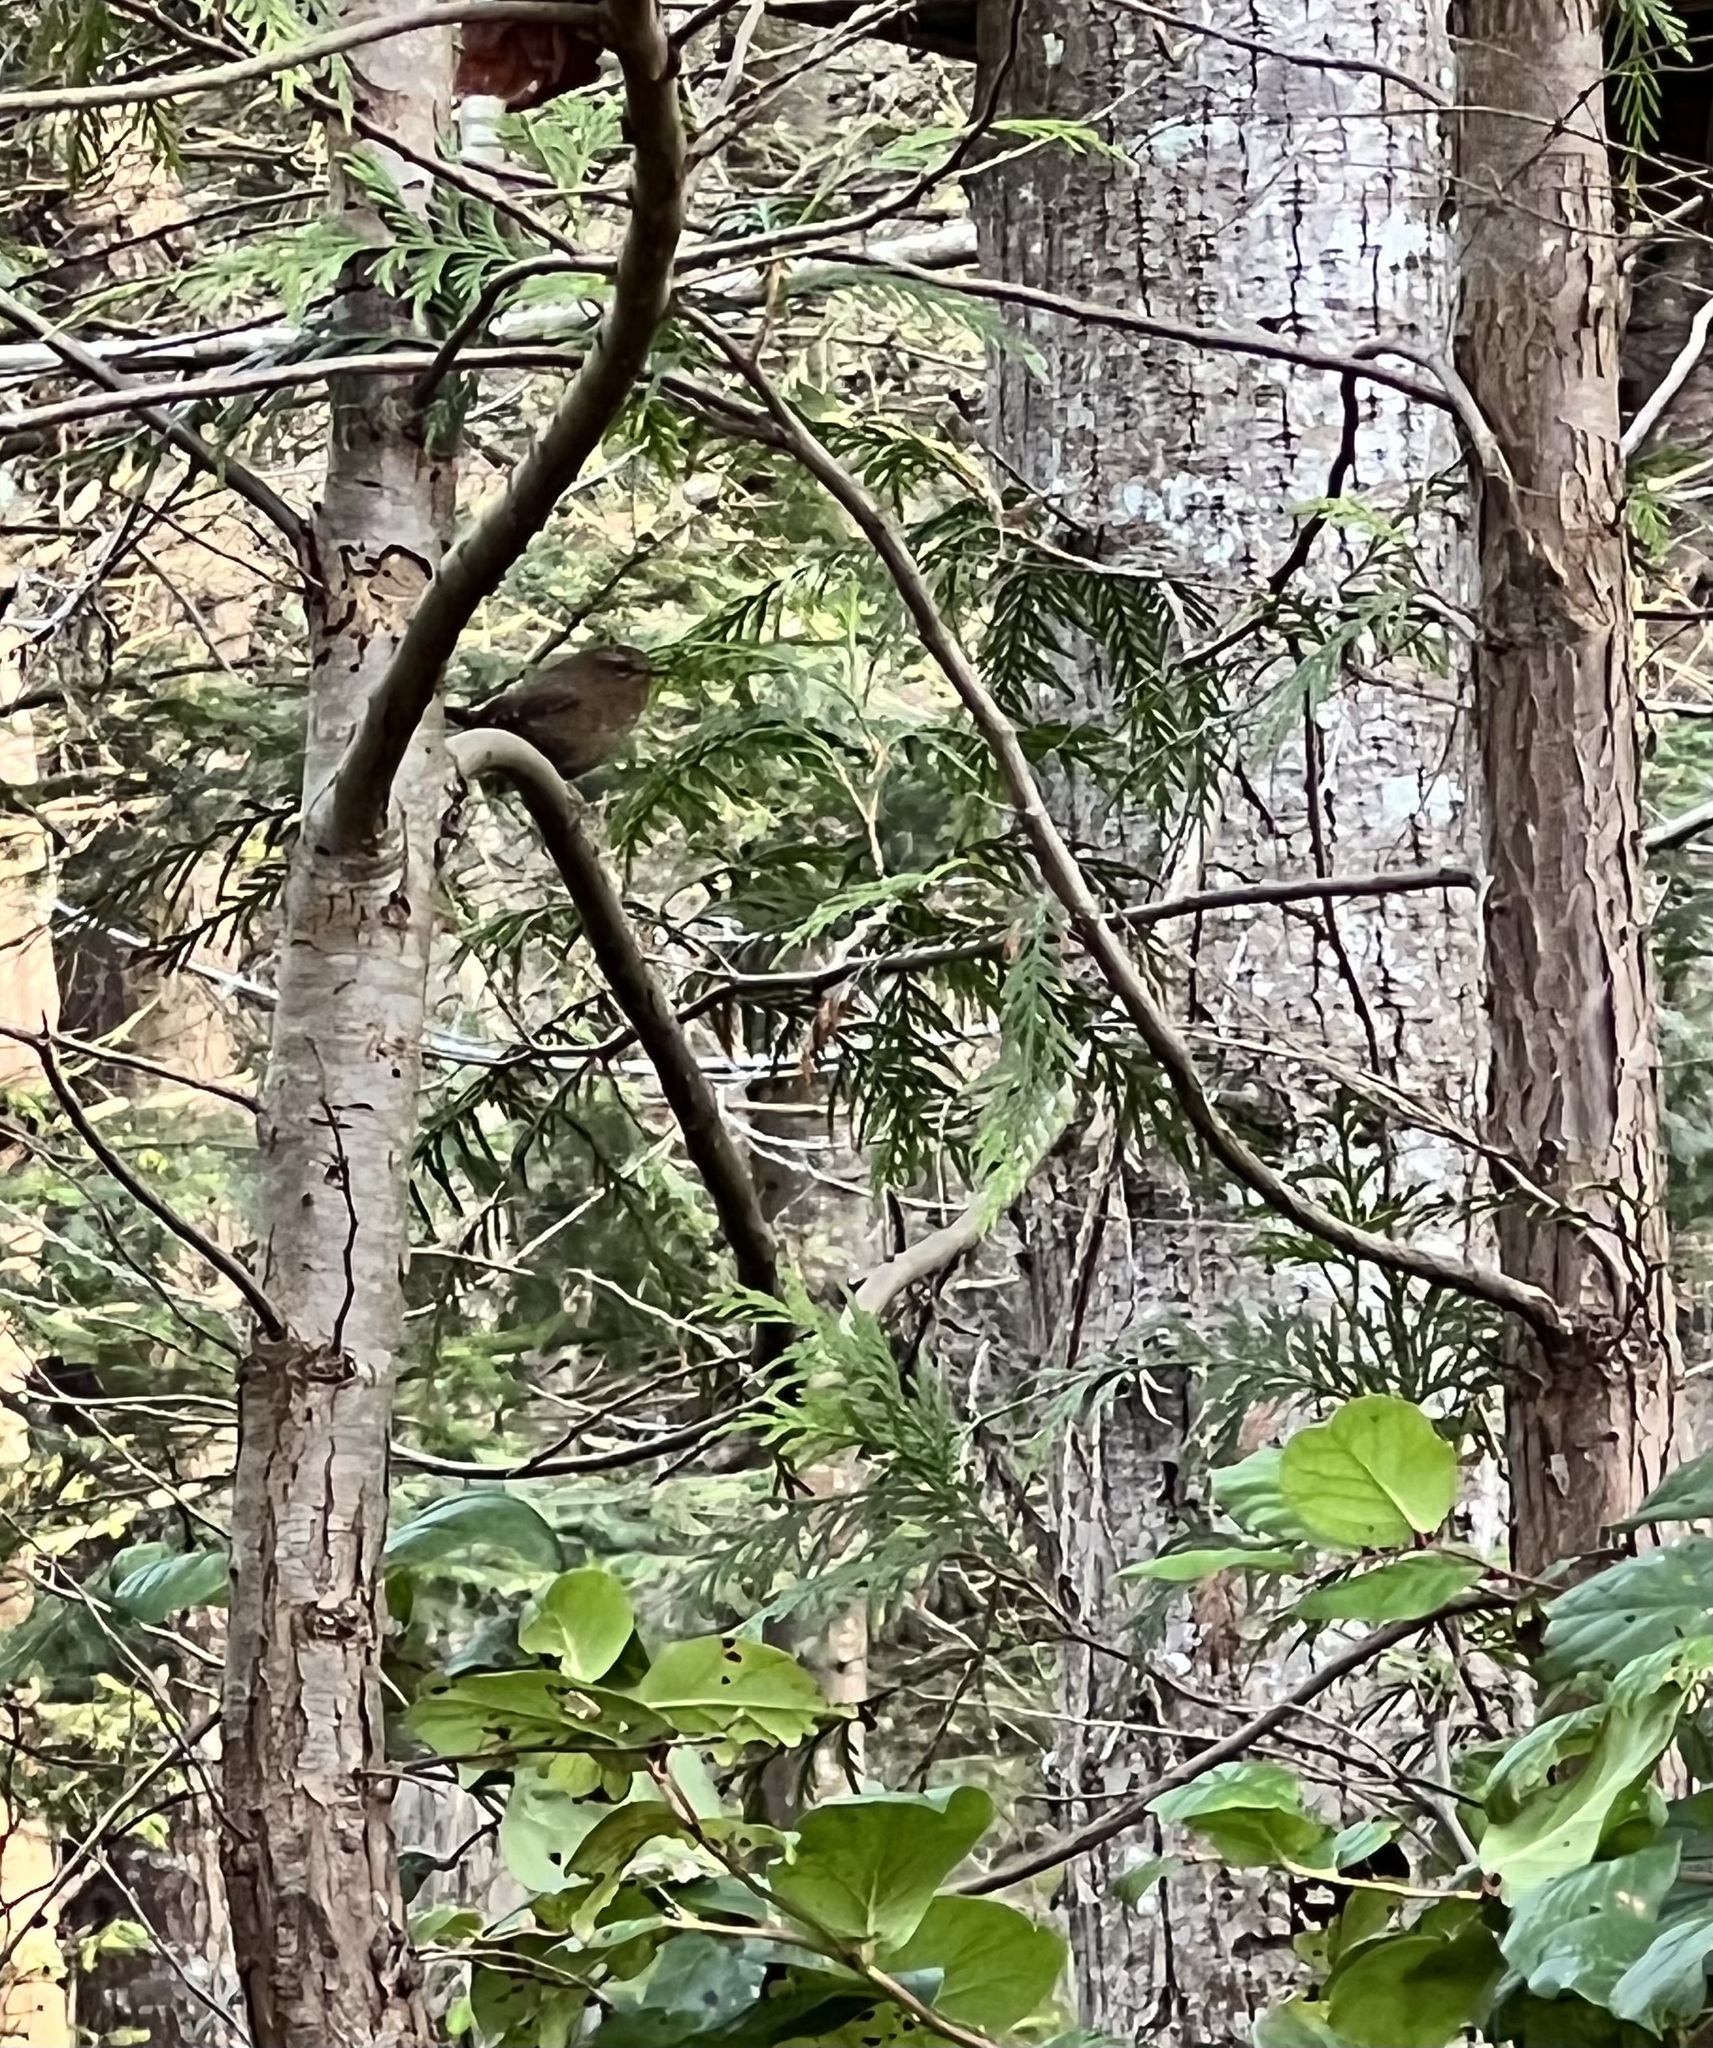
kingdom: Animalia
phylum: Chordata
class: Aves
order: Passeriformes
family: Troglodytidae
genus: Troglodytes
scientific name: Troglodytes pacificus
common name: Pacific wren
